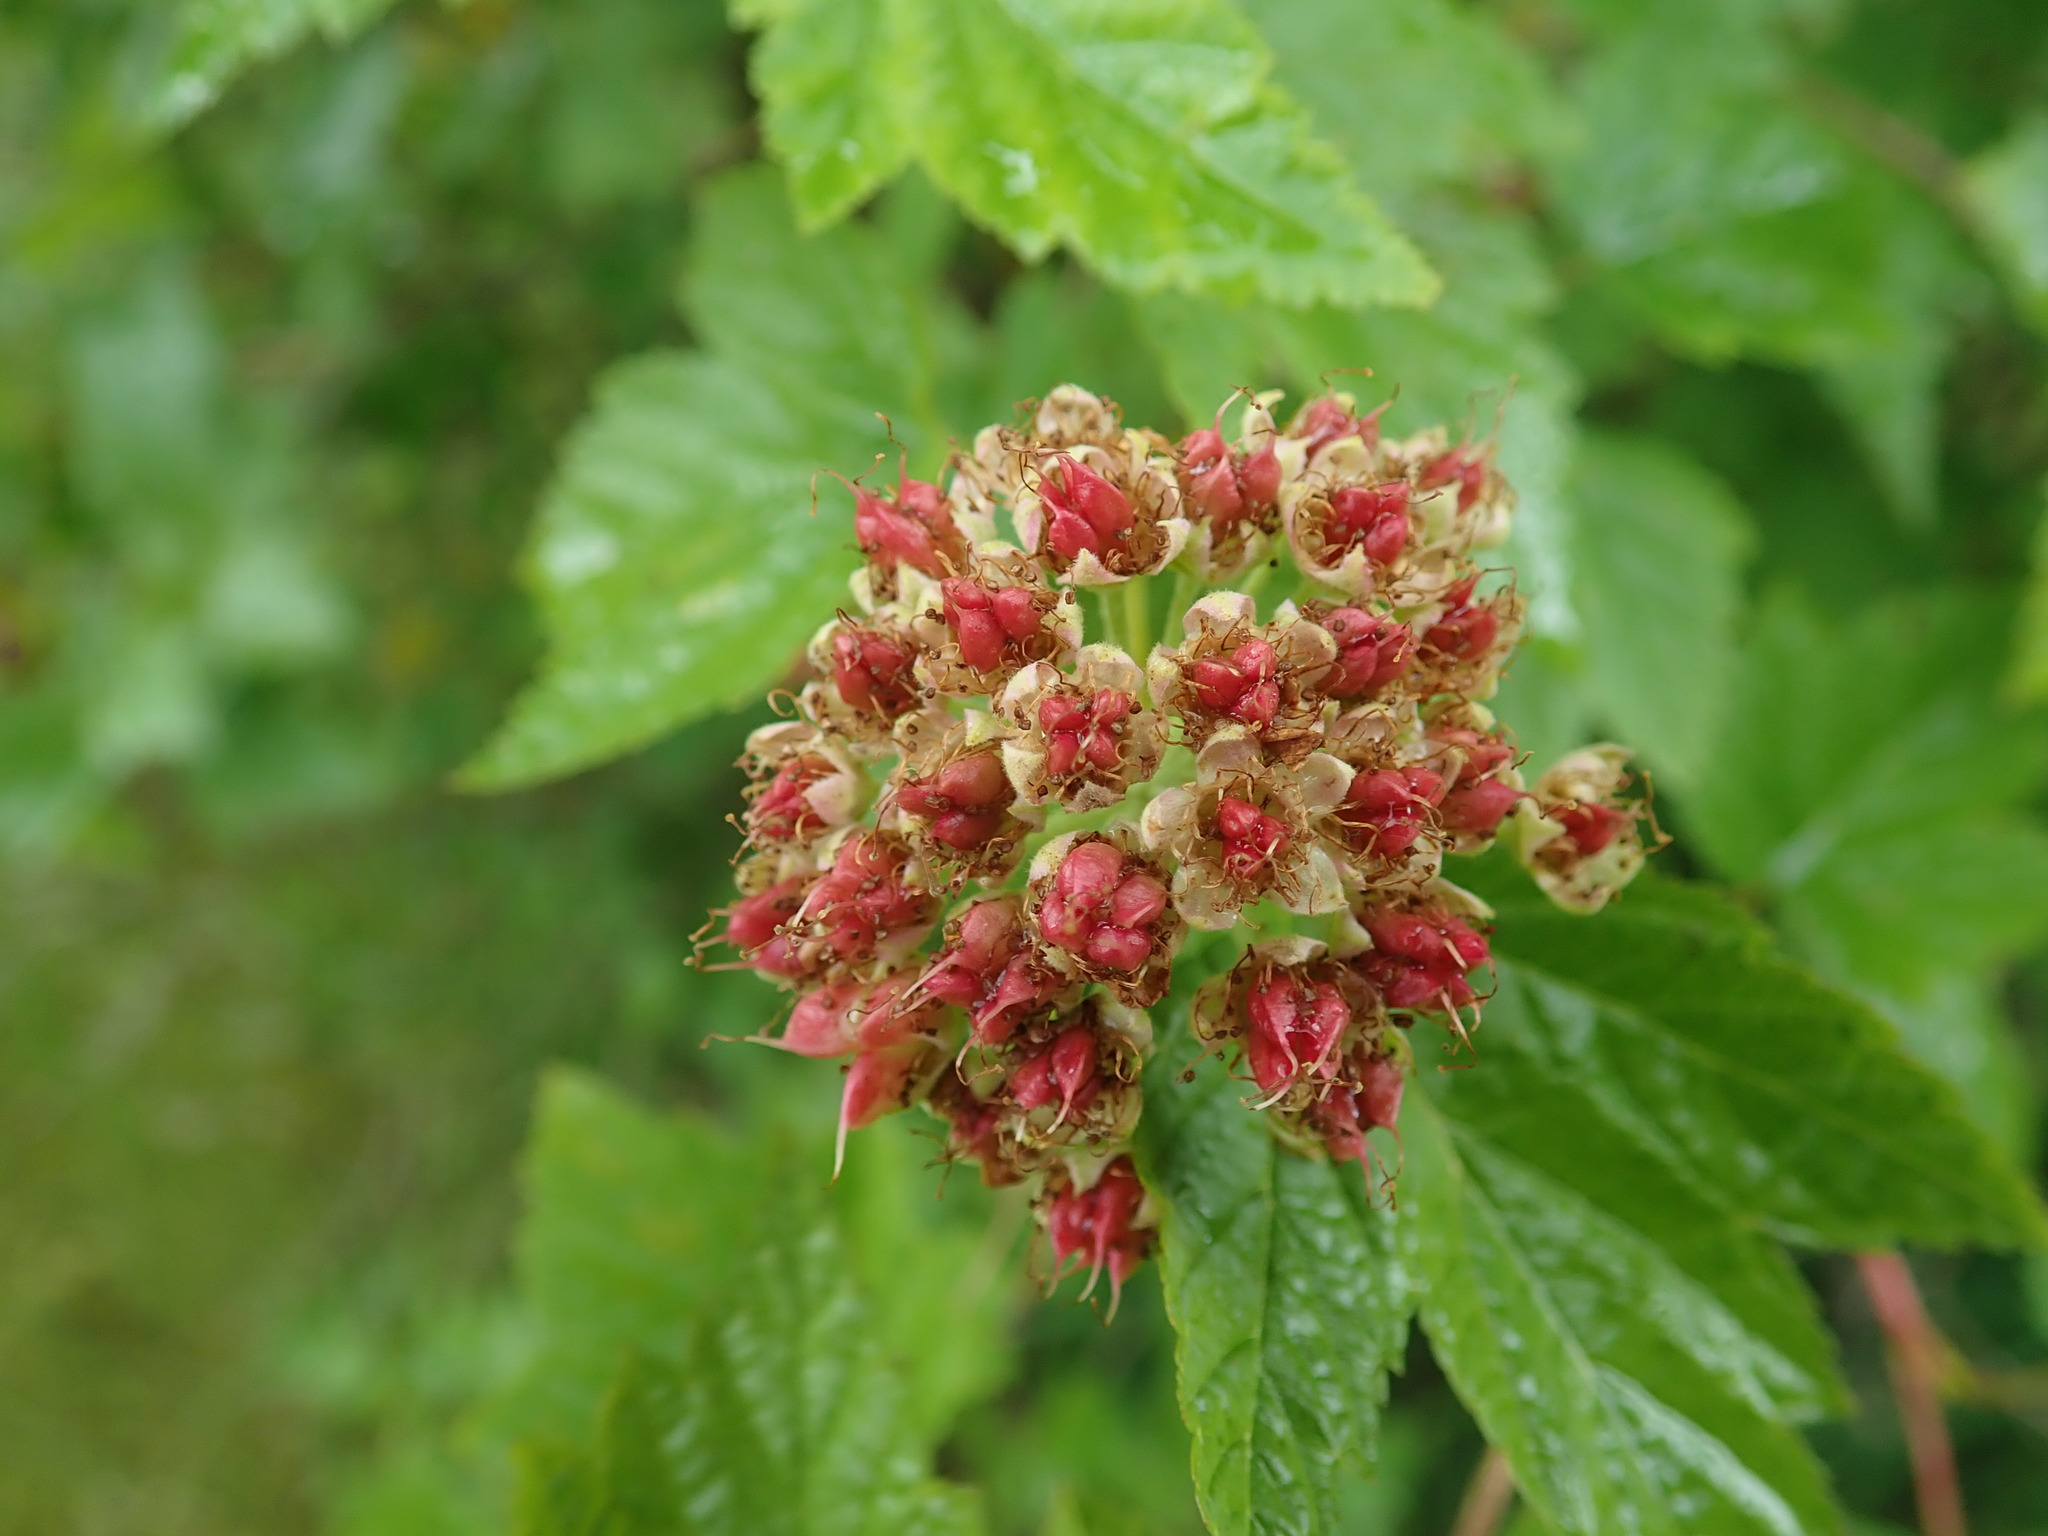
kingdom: Plantae
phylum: Tracheophyta
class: Magnoliopsida
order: Rosales
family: Rosaceae
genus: Physocarpus
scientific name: Physocarpus capitatus
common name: Pacific ninebark
